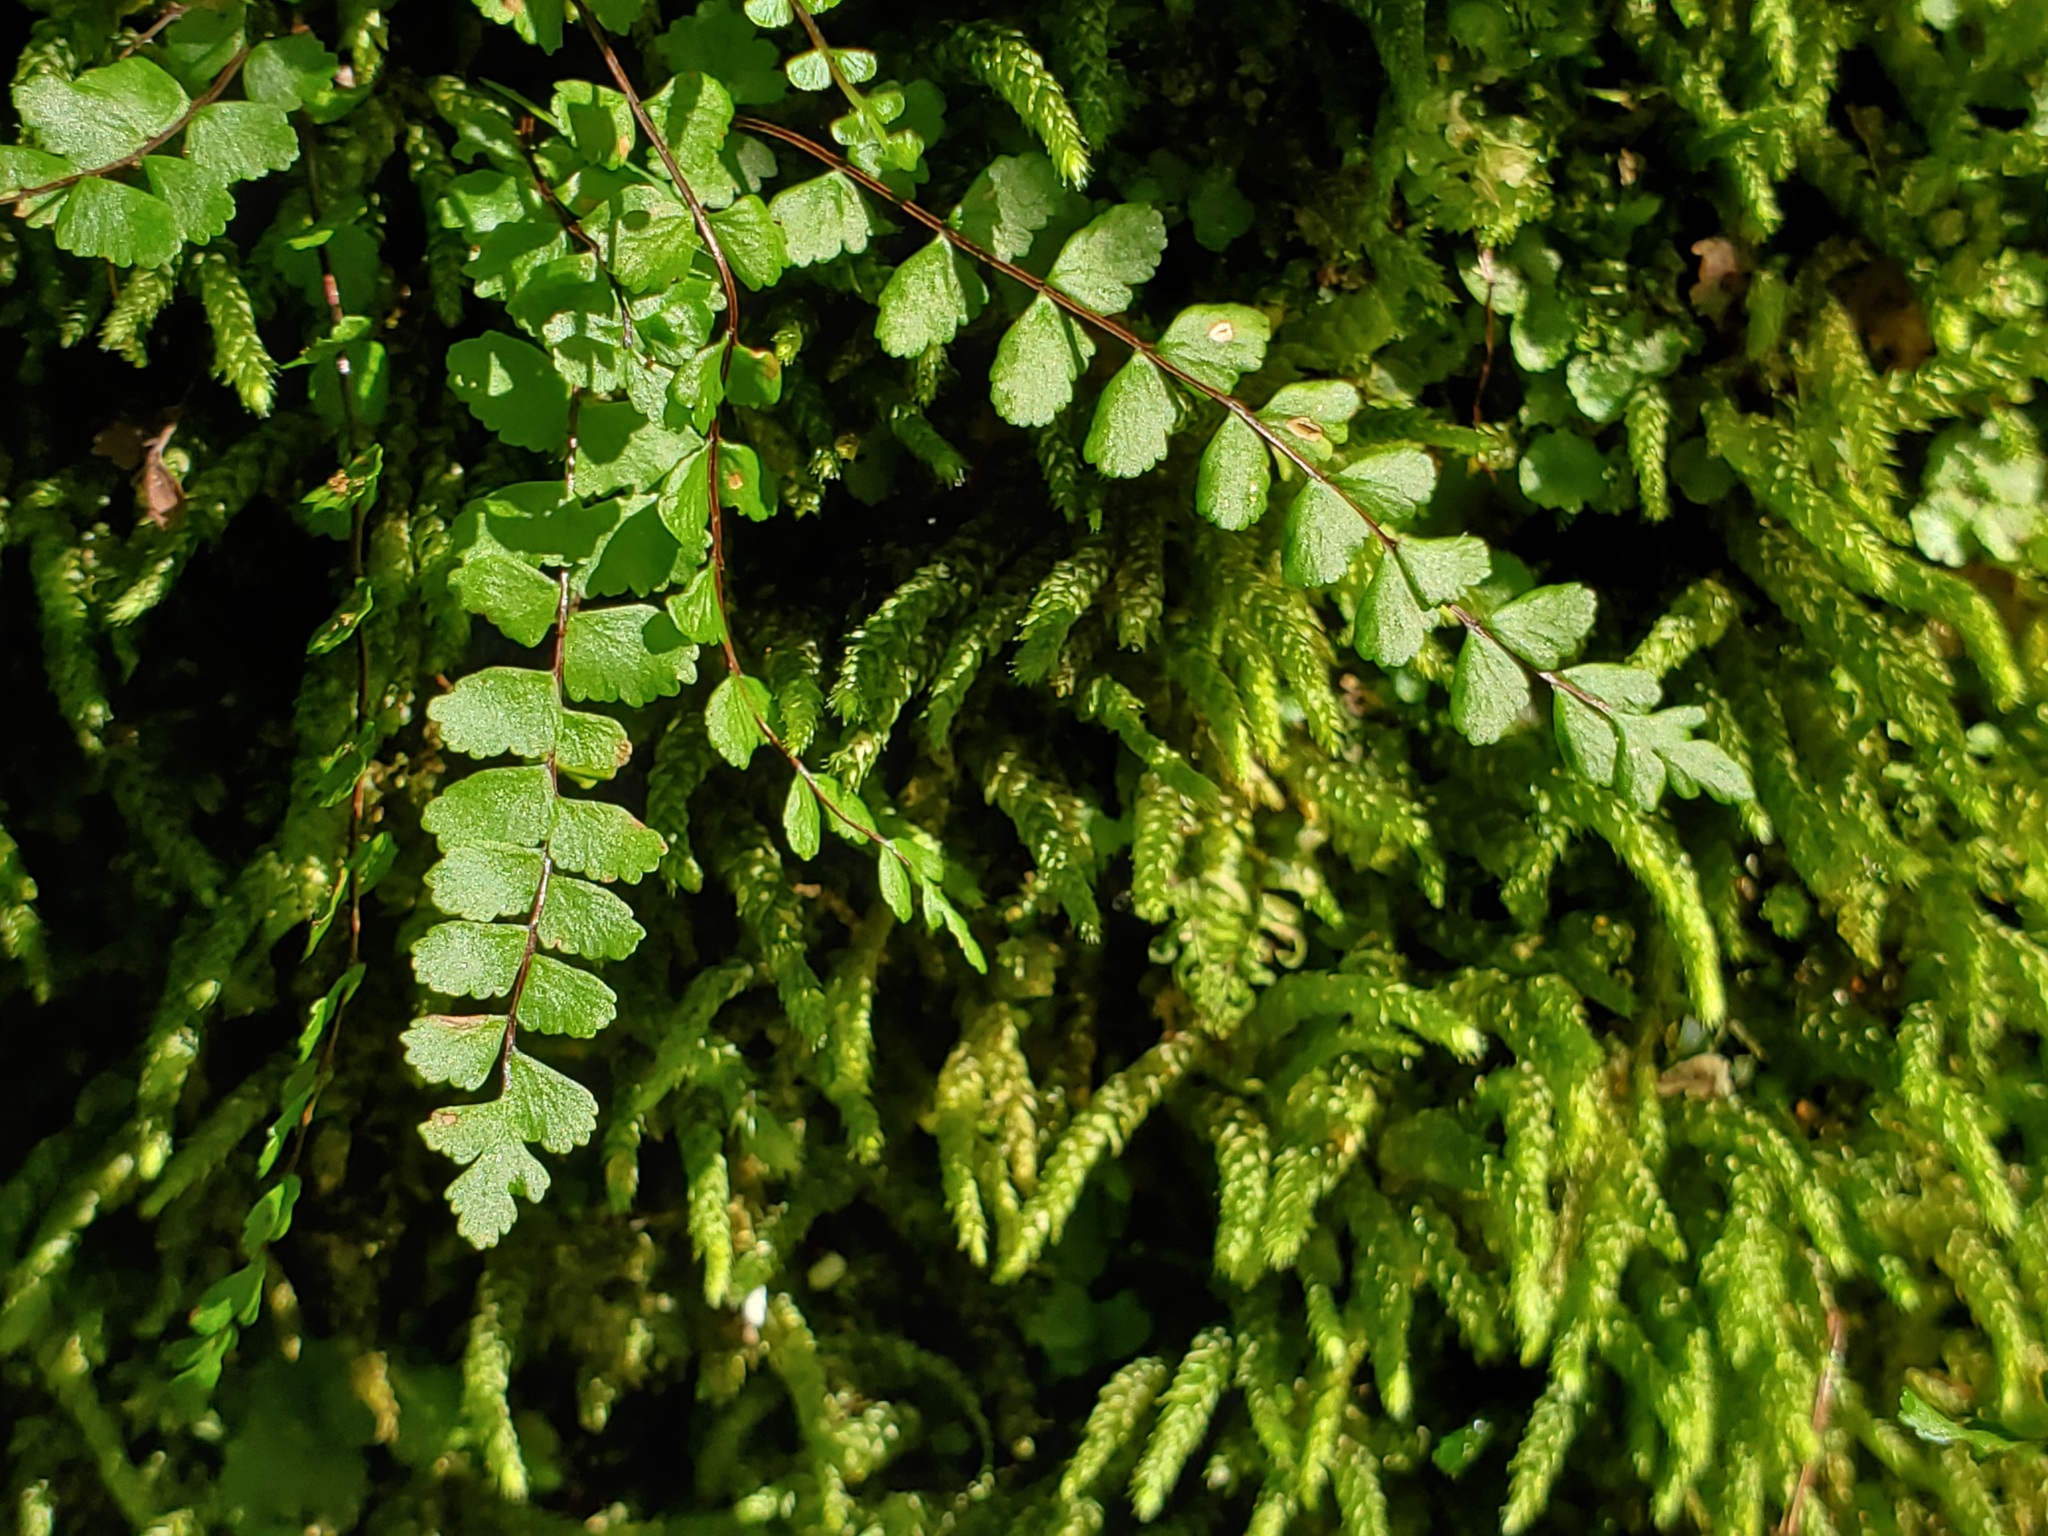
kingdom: Plantae
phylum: Tracheophyta
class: Polypodiopsida
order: Polypodiales
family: Aspleniaceae
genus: Asplenium
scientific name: Asplenium trichomanes
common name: Maidenhair spleenwort
